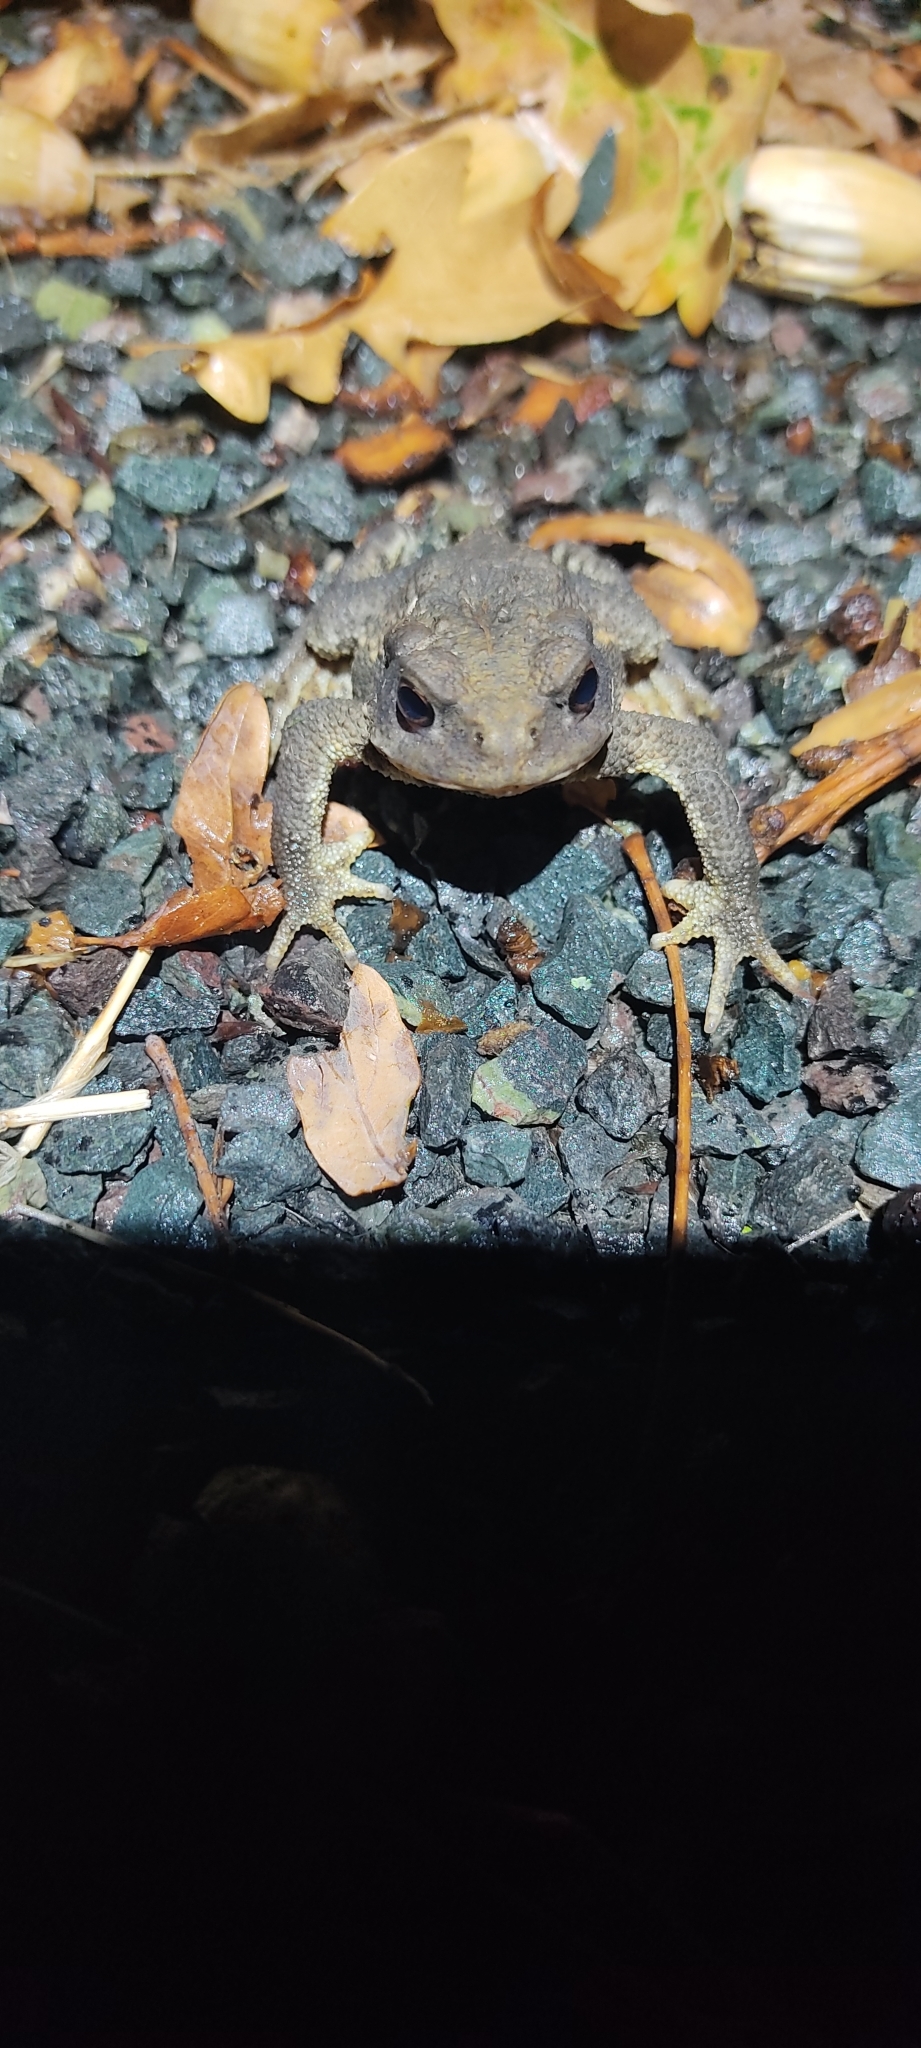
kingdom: Animalia
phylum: Chordata
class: Amphibia
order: Anura
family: Bufonidae
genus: Bufo
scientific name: Bufo spinosus
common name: Western common toad
